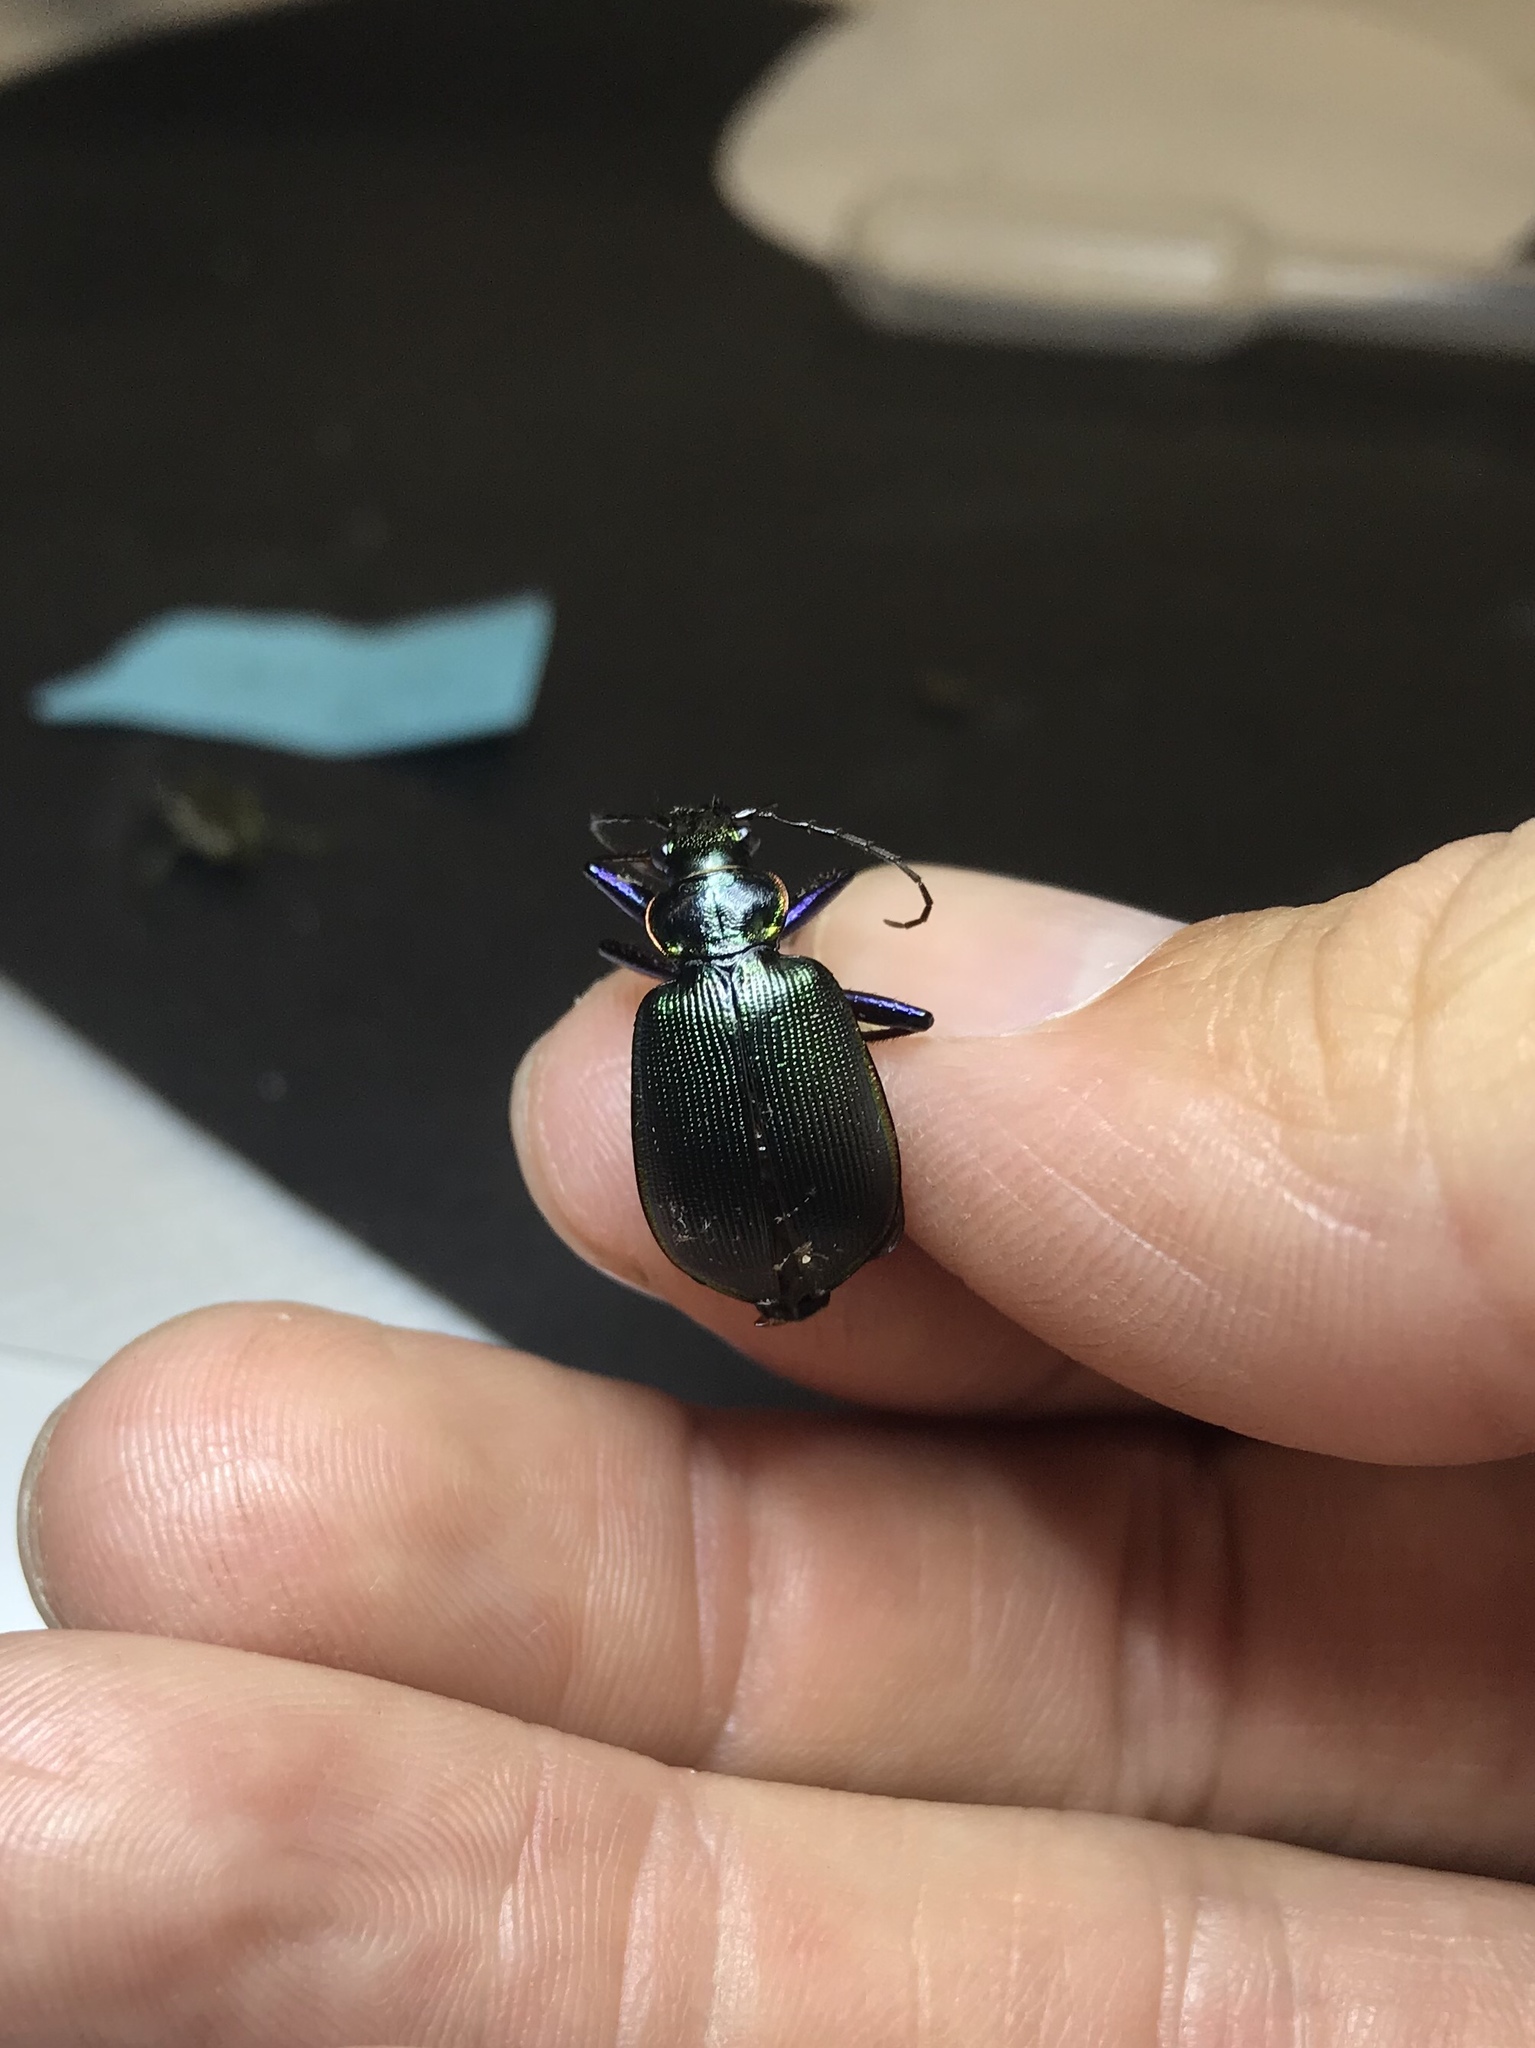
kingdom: Animalia
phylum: Arthropoda
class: Insecta
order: Coleoptera
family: Carabidae
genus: Calosoma
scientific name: Calosoma wilcoxi
